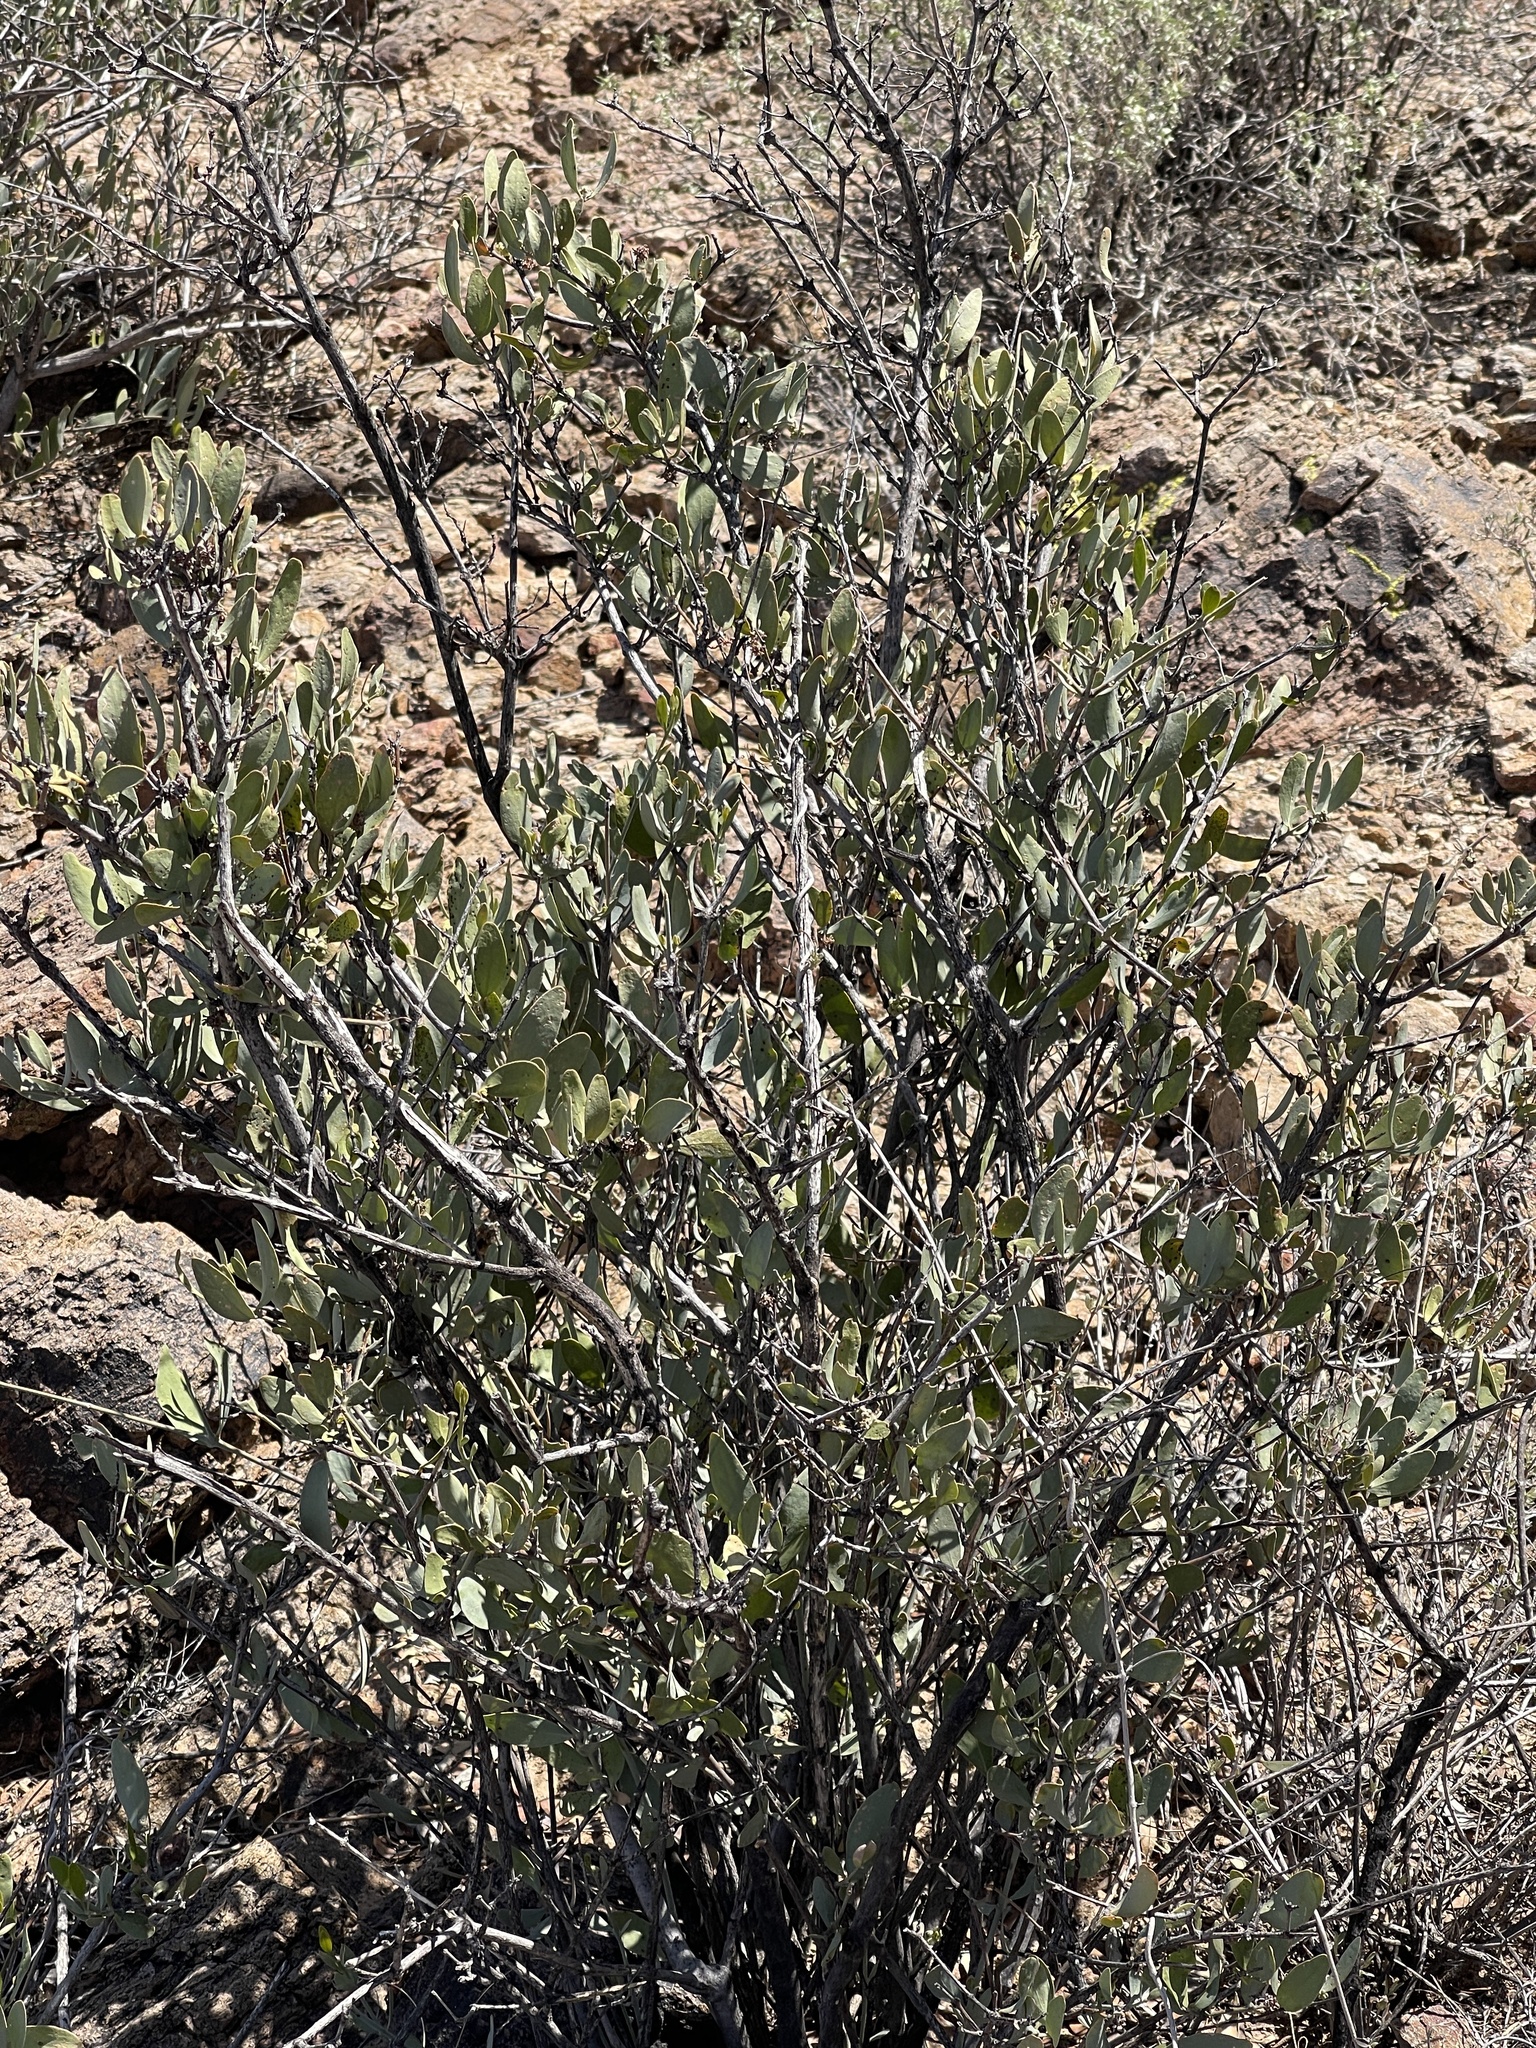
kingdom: Plantae
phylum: Tracheophyta
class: Magnoliopsida
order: Caryophyllales
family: Simmondsiaceae
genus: Simmondsia
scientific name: Simmondsia chinensis
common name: Jojoba
